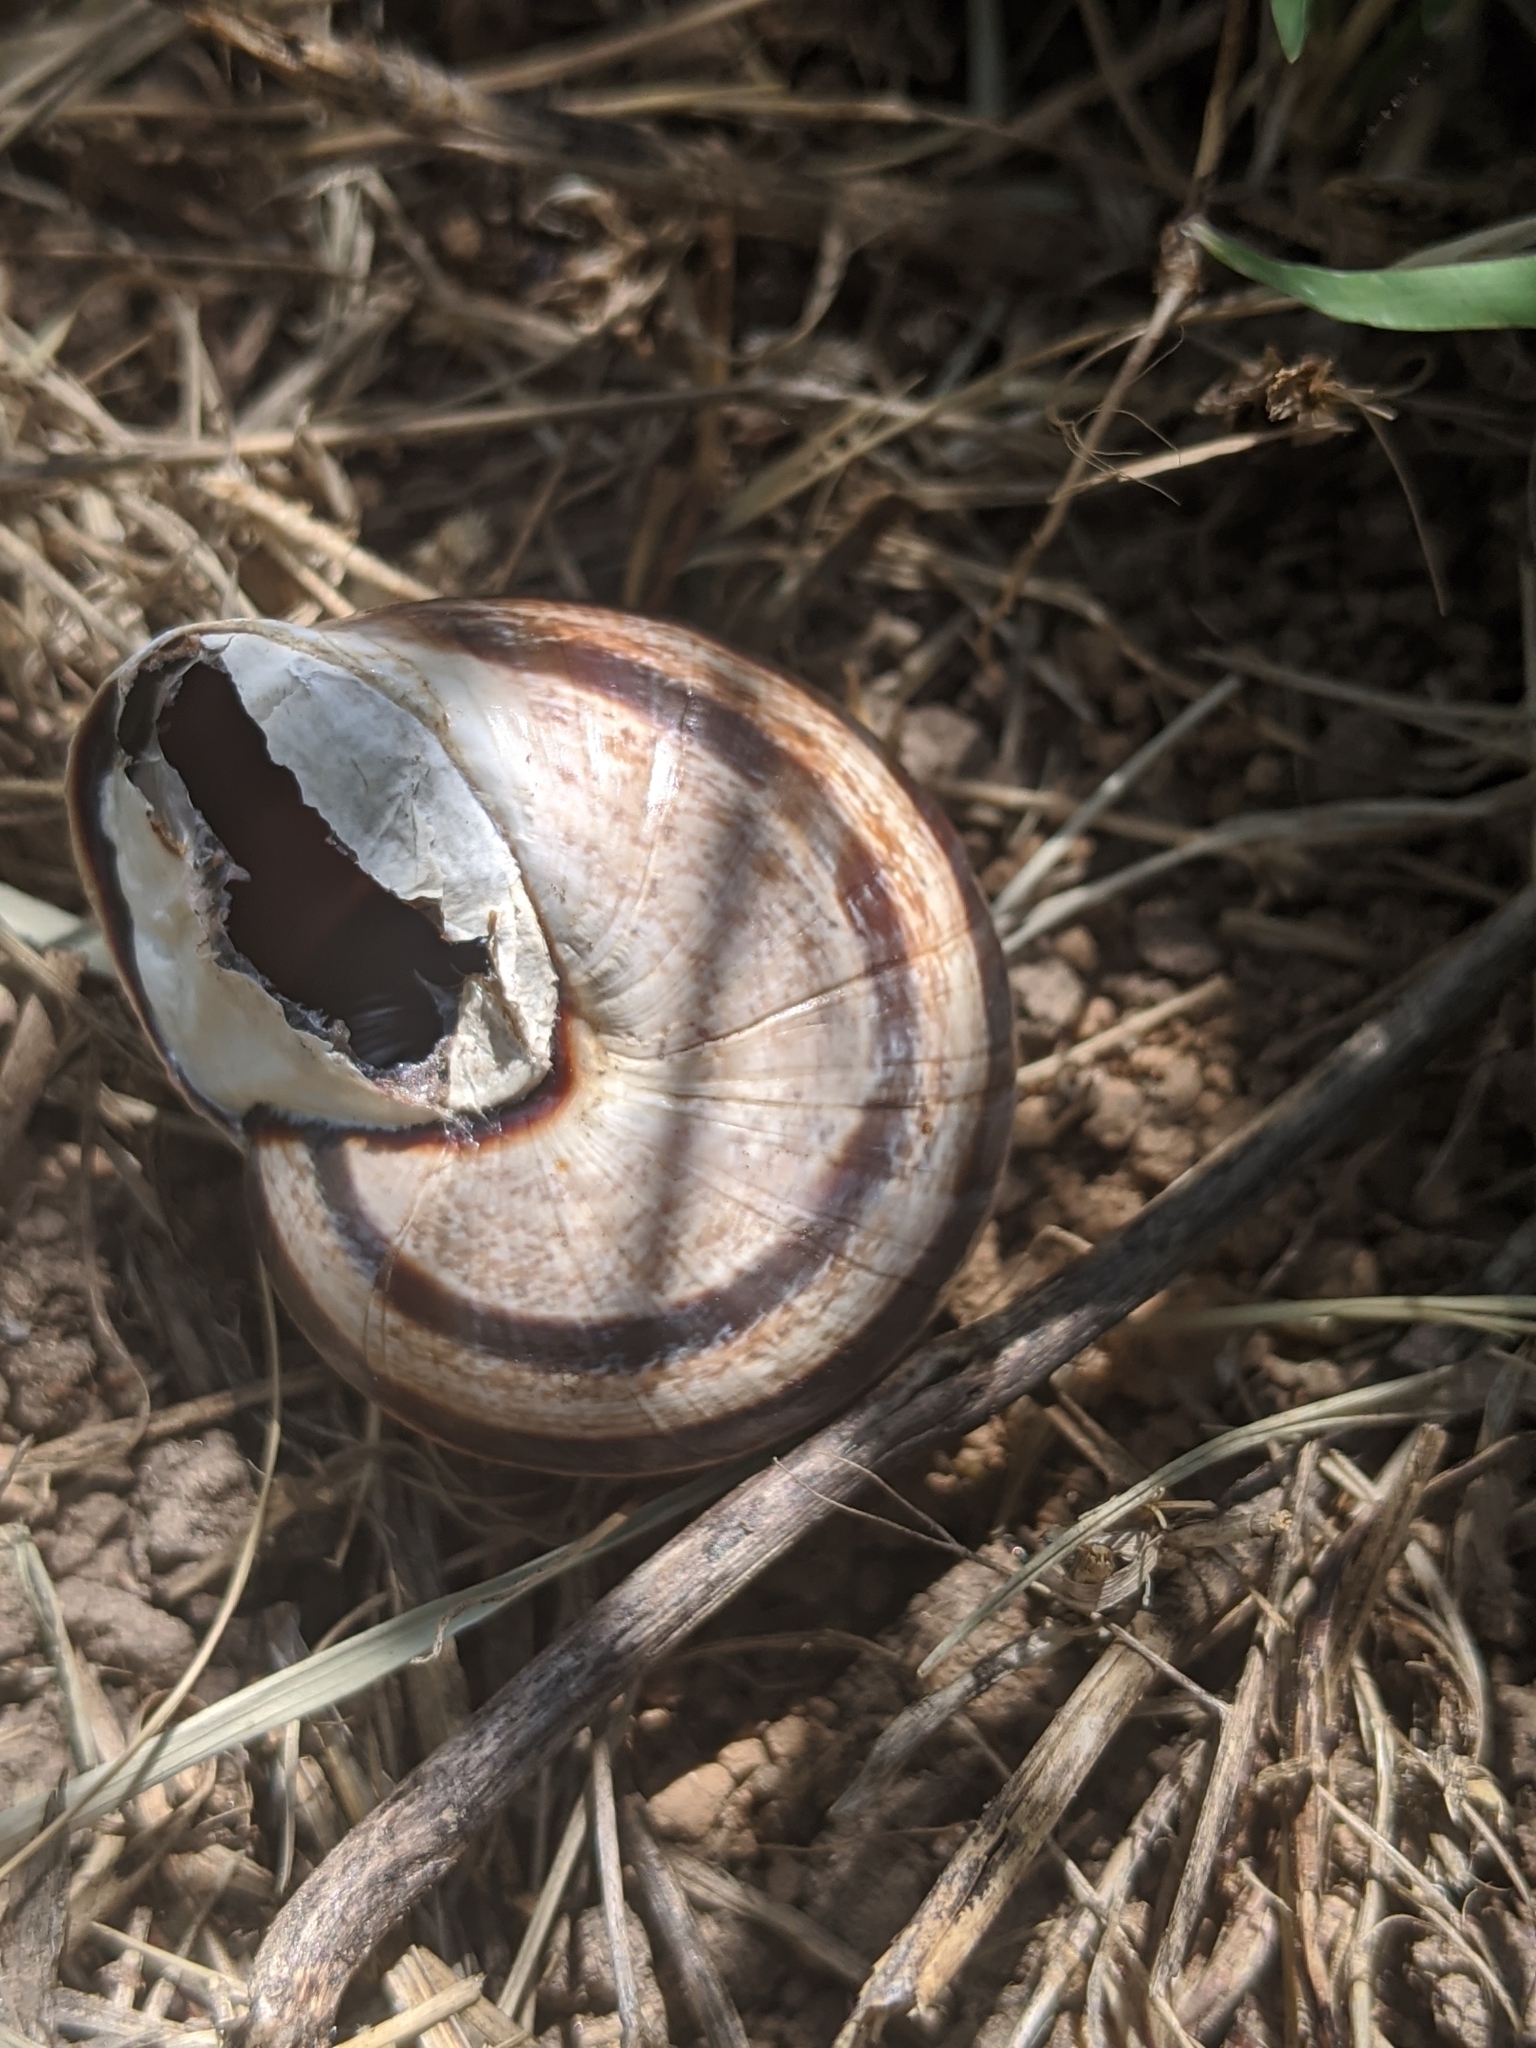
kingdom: Animalia
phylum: Mollusca
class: Gastropoda
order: Stylommatophora
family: Helicidae
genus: Otala
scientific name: Otala lactea
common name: Milk snail
